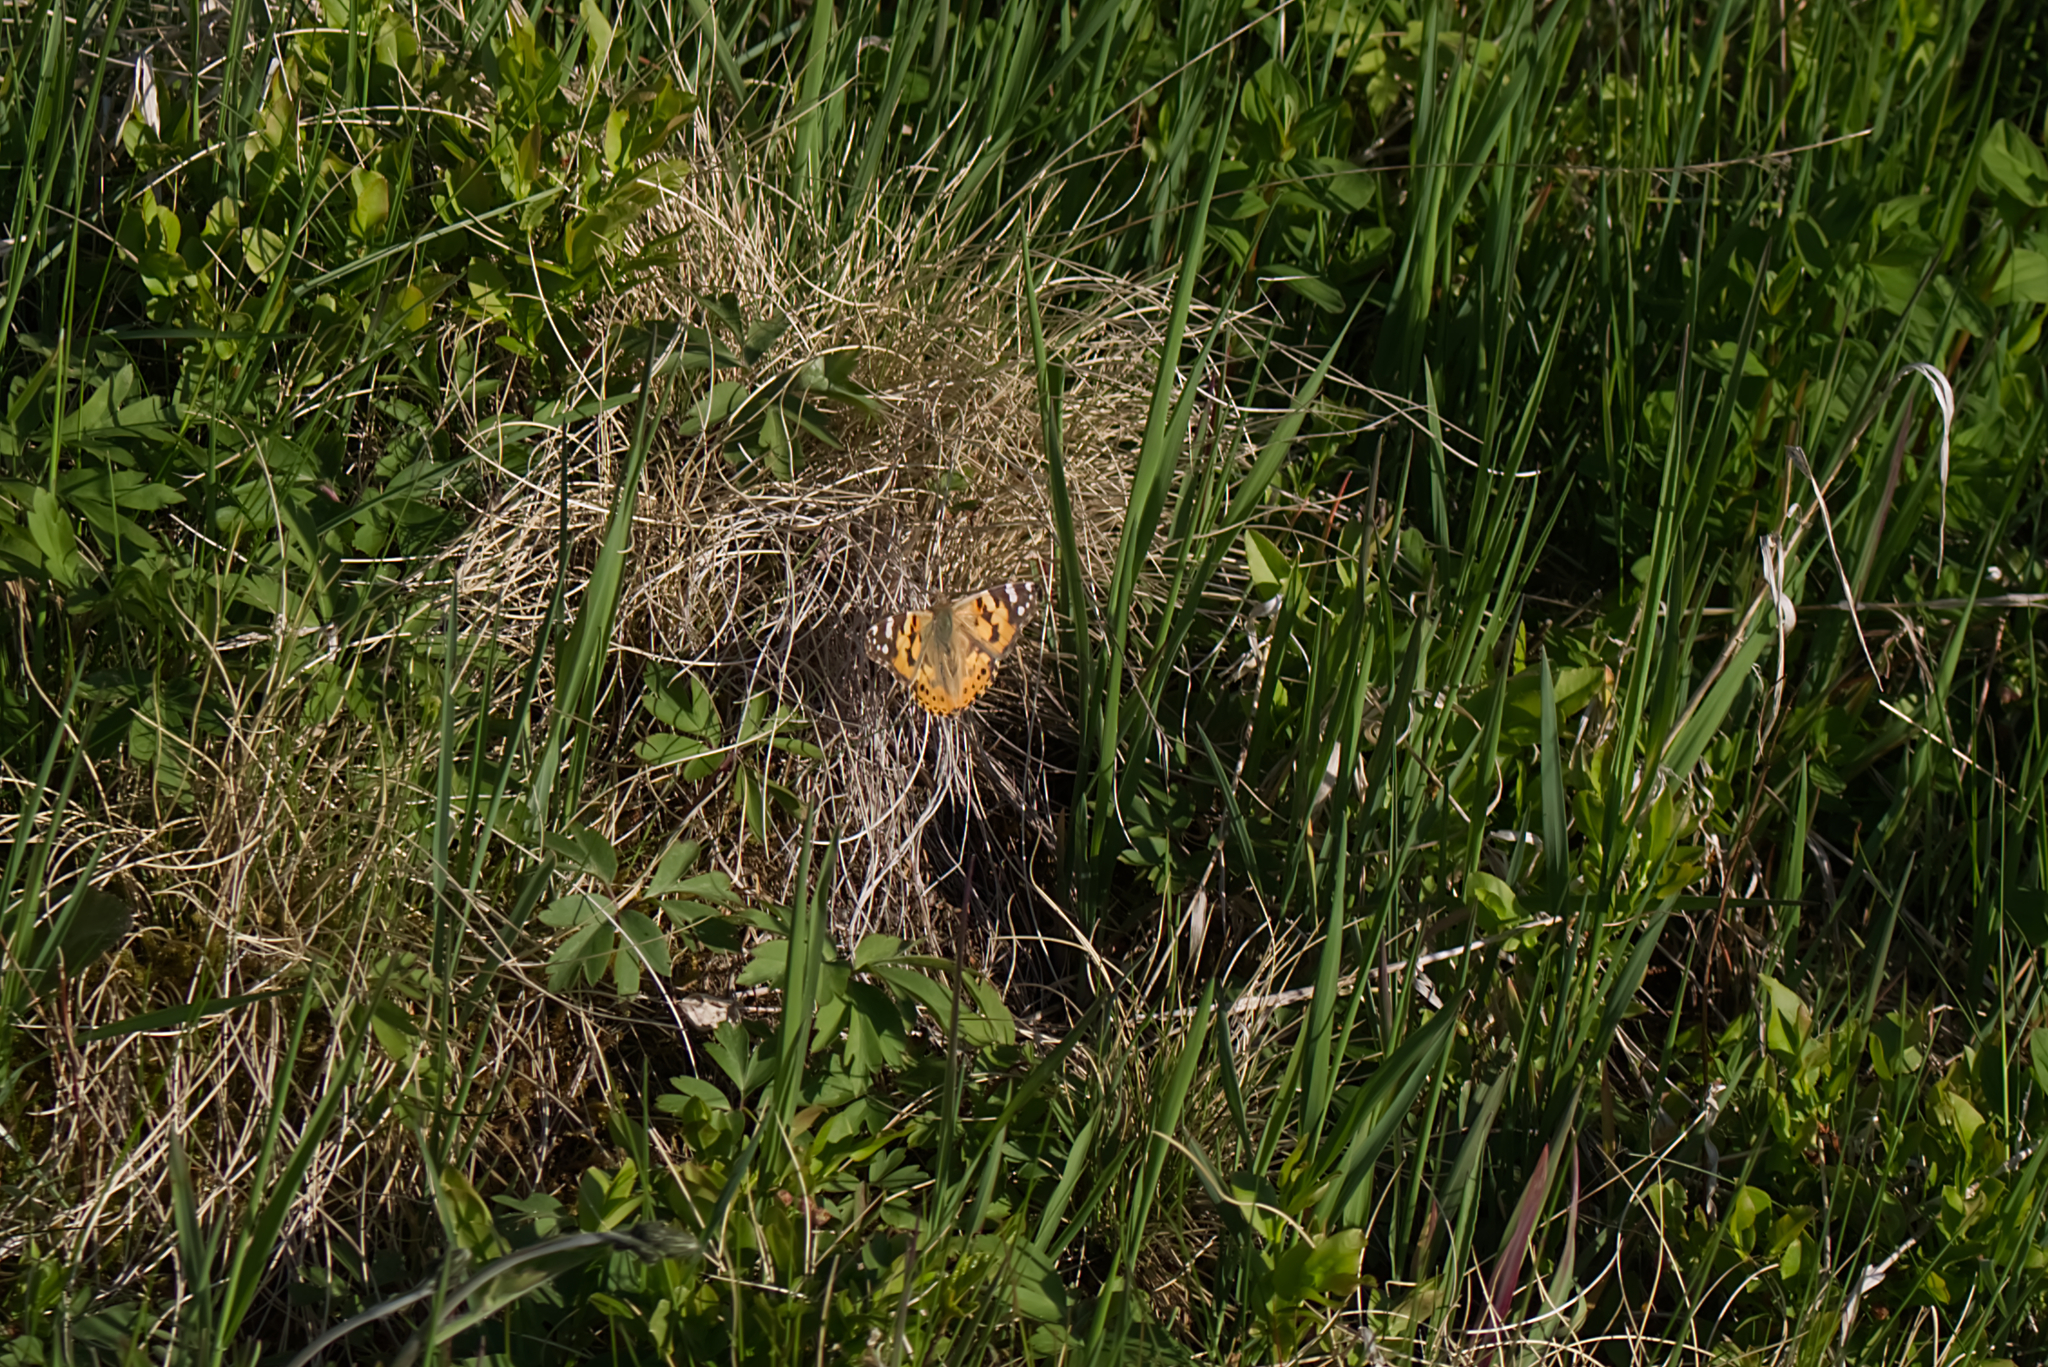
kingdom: Animalia
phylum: Arthropoda
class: Insecta
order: Lepidoptera
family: Nymphalidae
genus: Vanessa
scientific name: Vanessa cardui
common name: Painted lady
